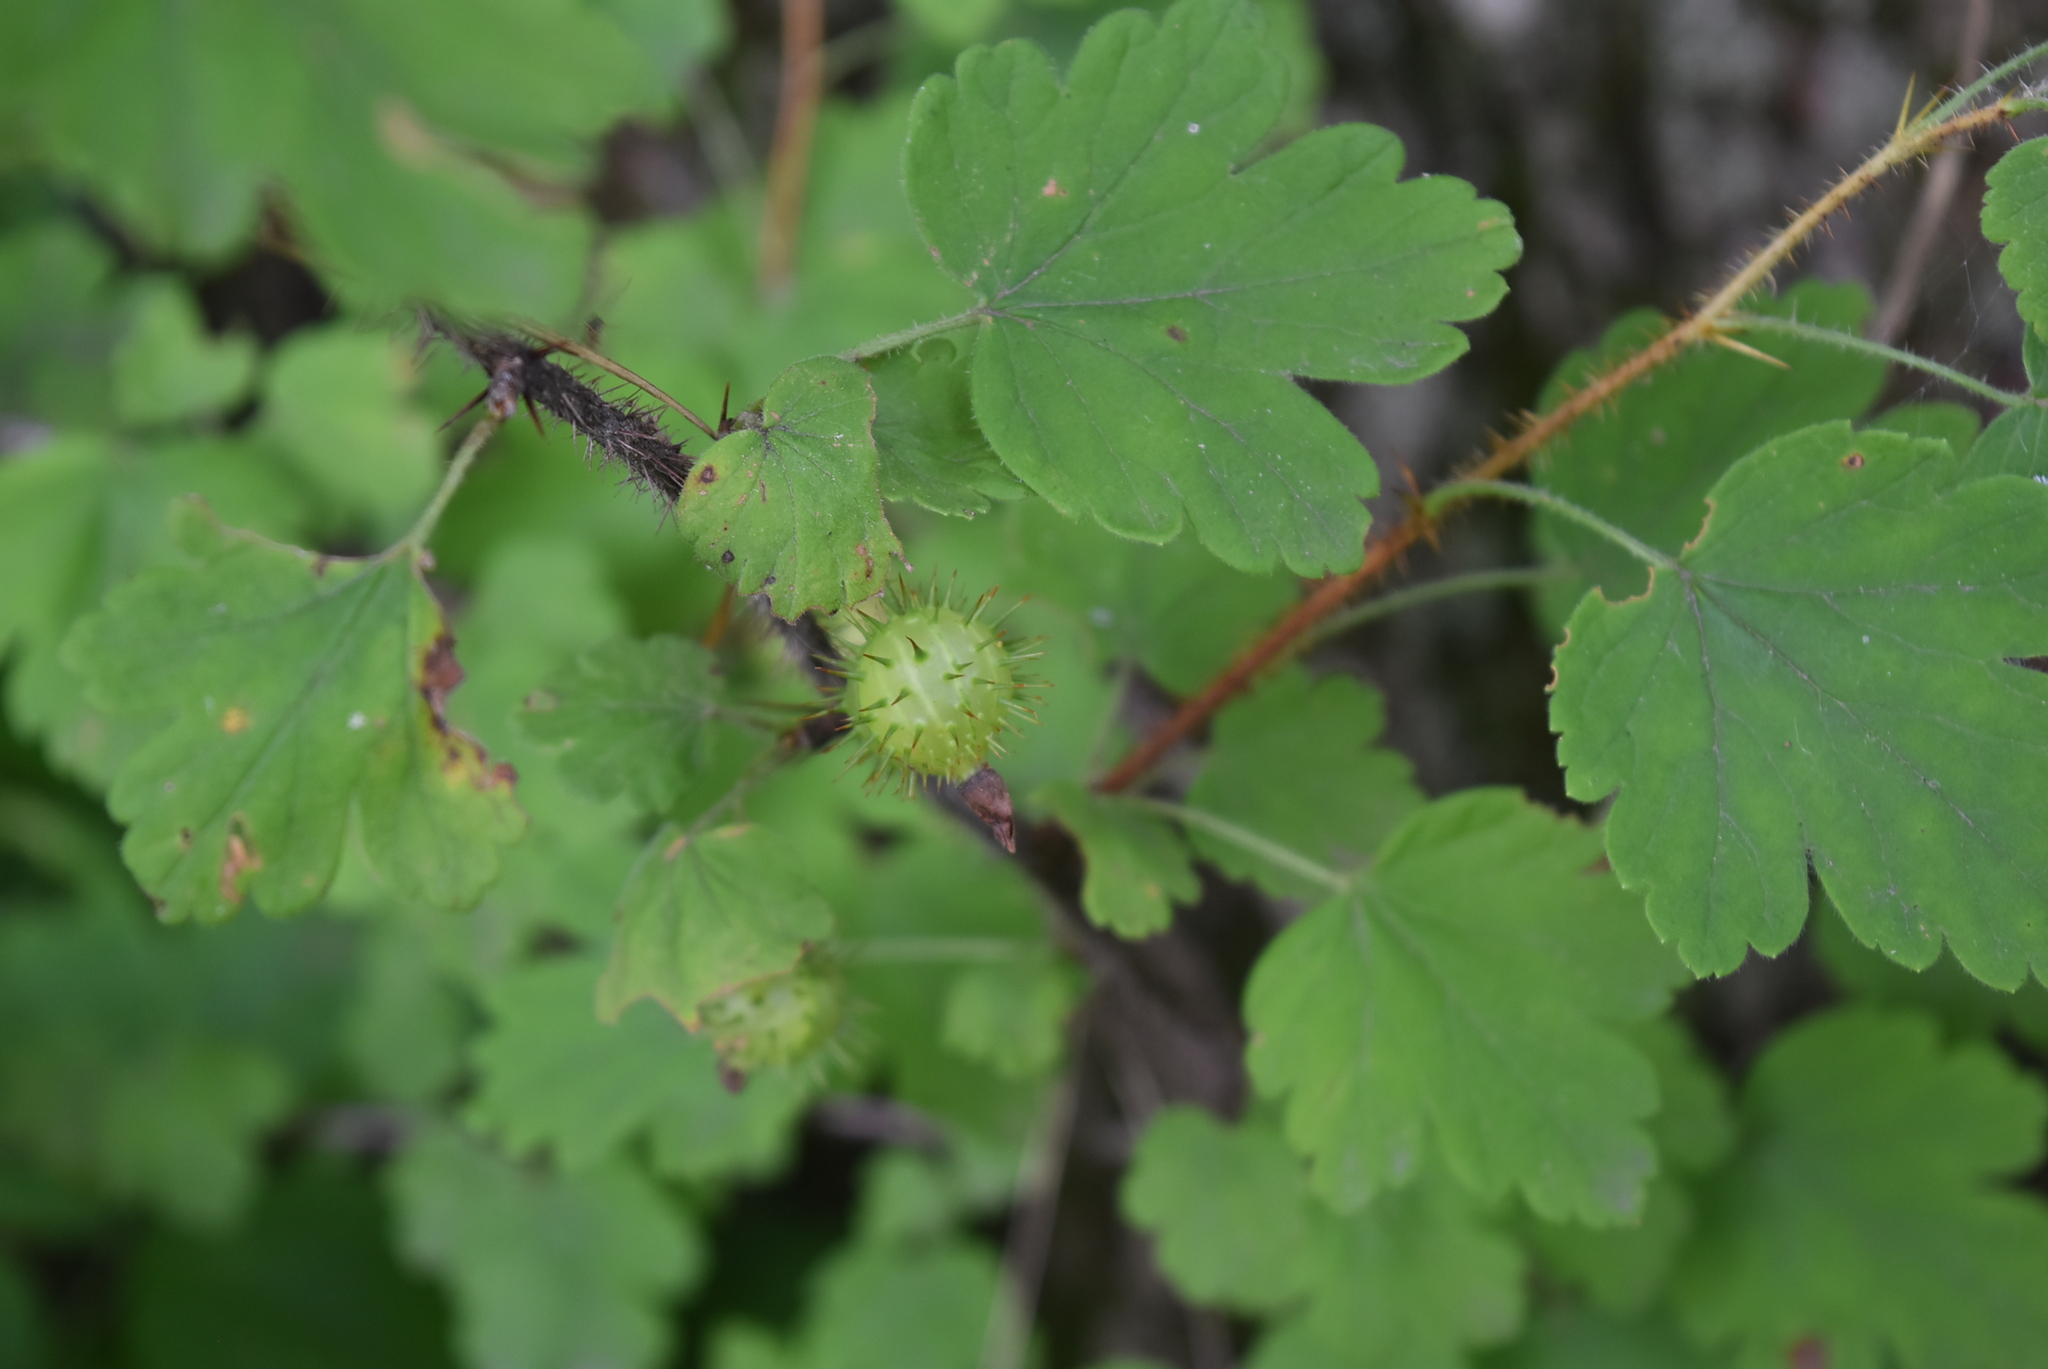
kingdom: Plantae
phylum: Tracheophyta
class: Magnoliopsida
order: Saxifragales
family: Grossulariaceae
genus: Ribes
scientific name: Ribes cynosbati
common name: American gooseberry
